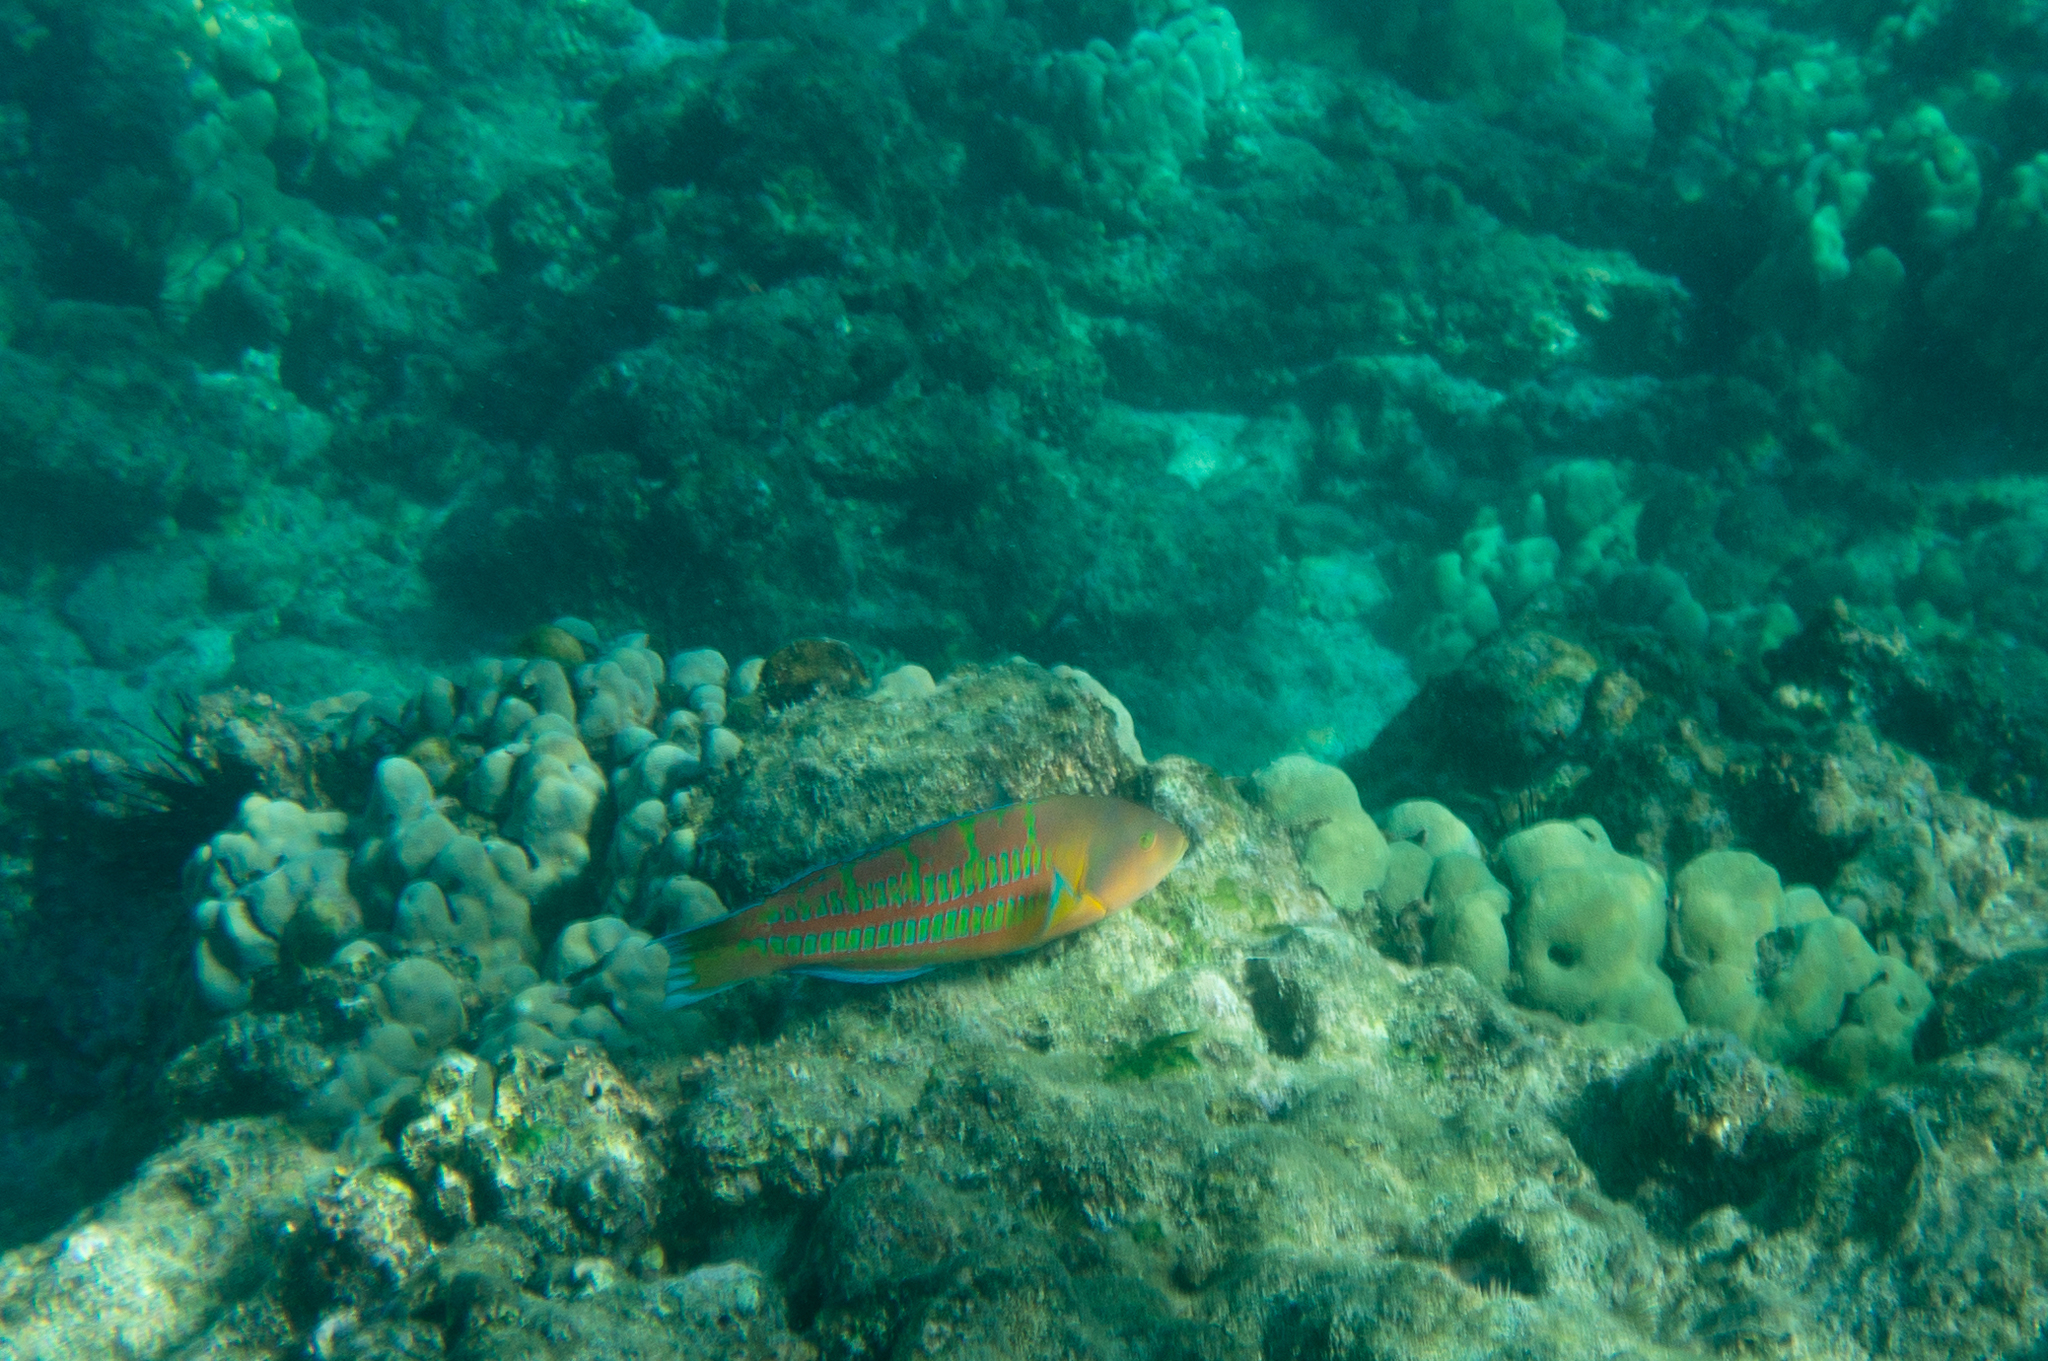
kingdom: Animalia
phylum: Chordata
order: Perciformes
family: Labridae
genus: Thalassoma
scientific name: Thalassoma trilobatum
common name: Christmas wrasse
